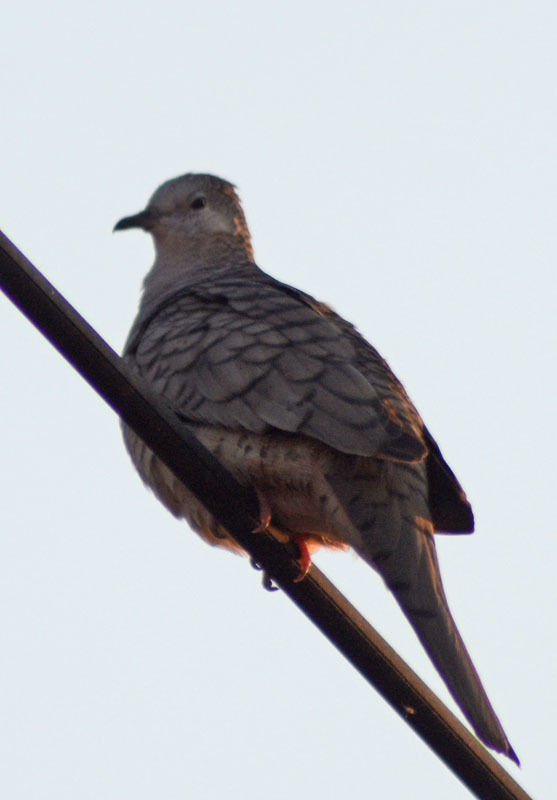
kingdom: Animalia
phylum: Chordata
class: Aves
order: Columbiformes
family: Columbidae
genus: Columbina
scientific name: Columbina inca
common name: Inca dove
